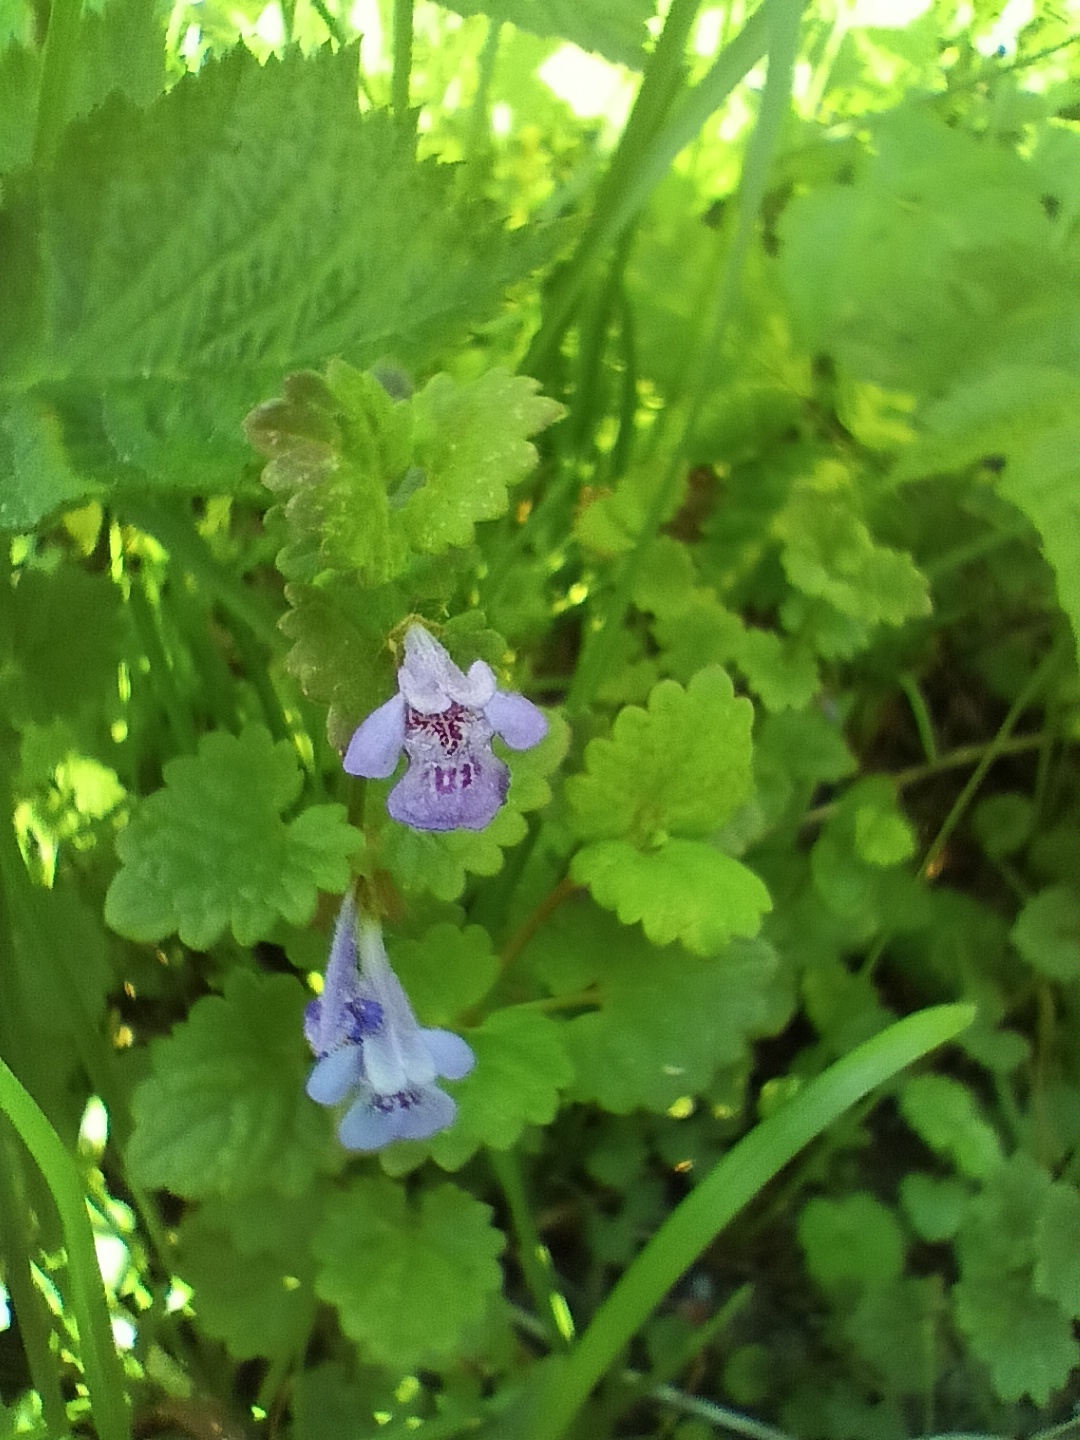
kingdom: Plantae
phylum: Tracheophyta
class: Magnoliopsida
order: Lamiales
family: Lamiaceae
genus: Glechoma
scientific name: Glechoma hederacea
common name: Ground ivy
